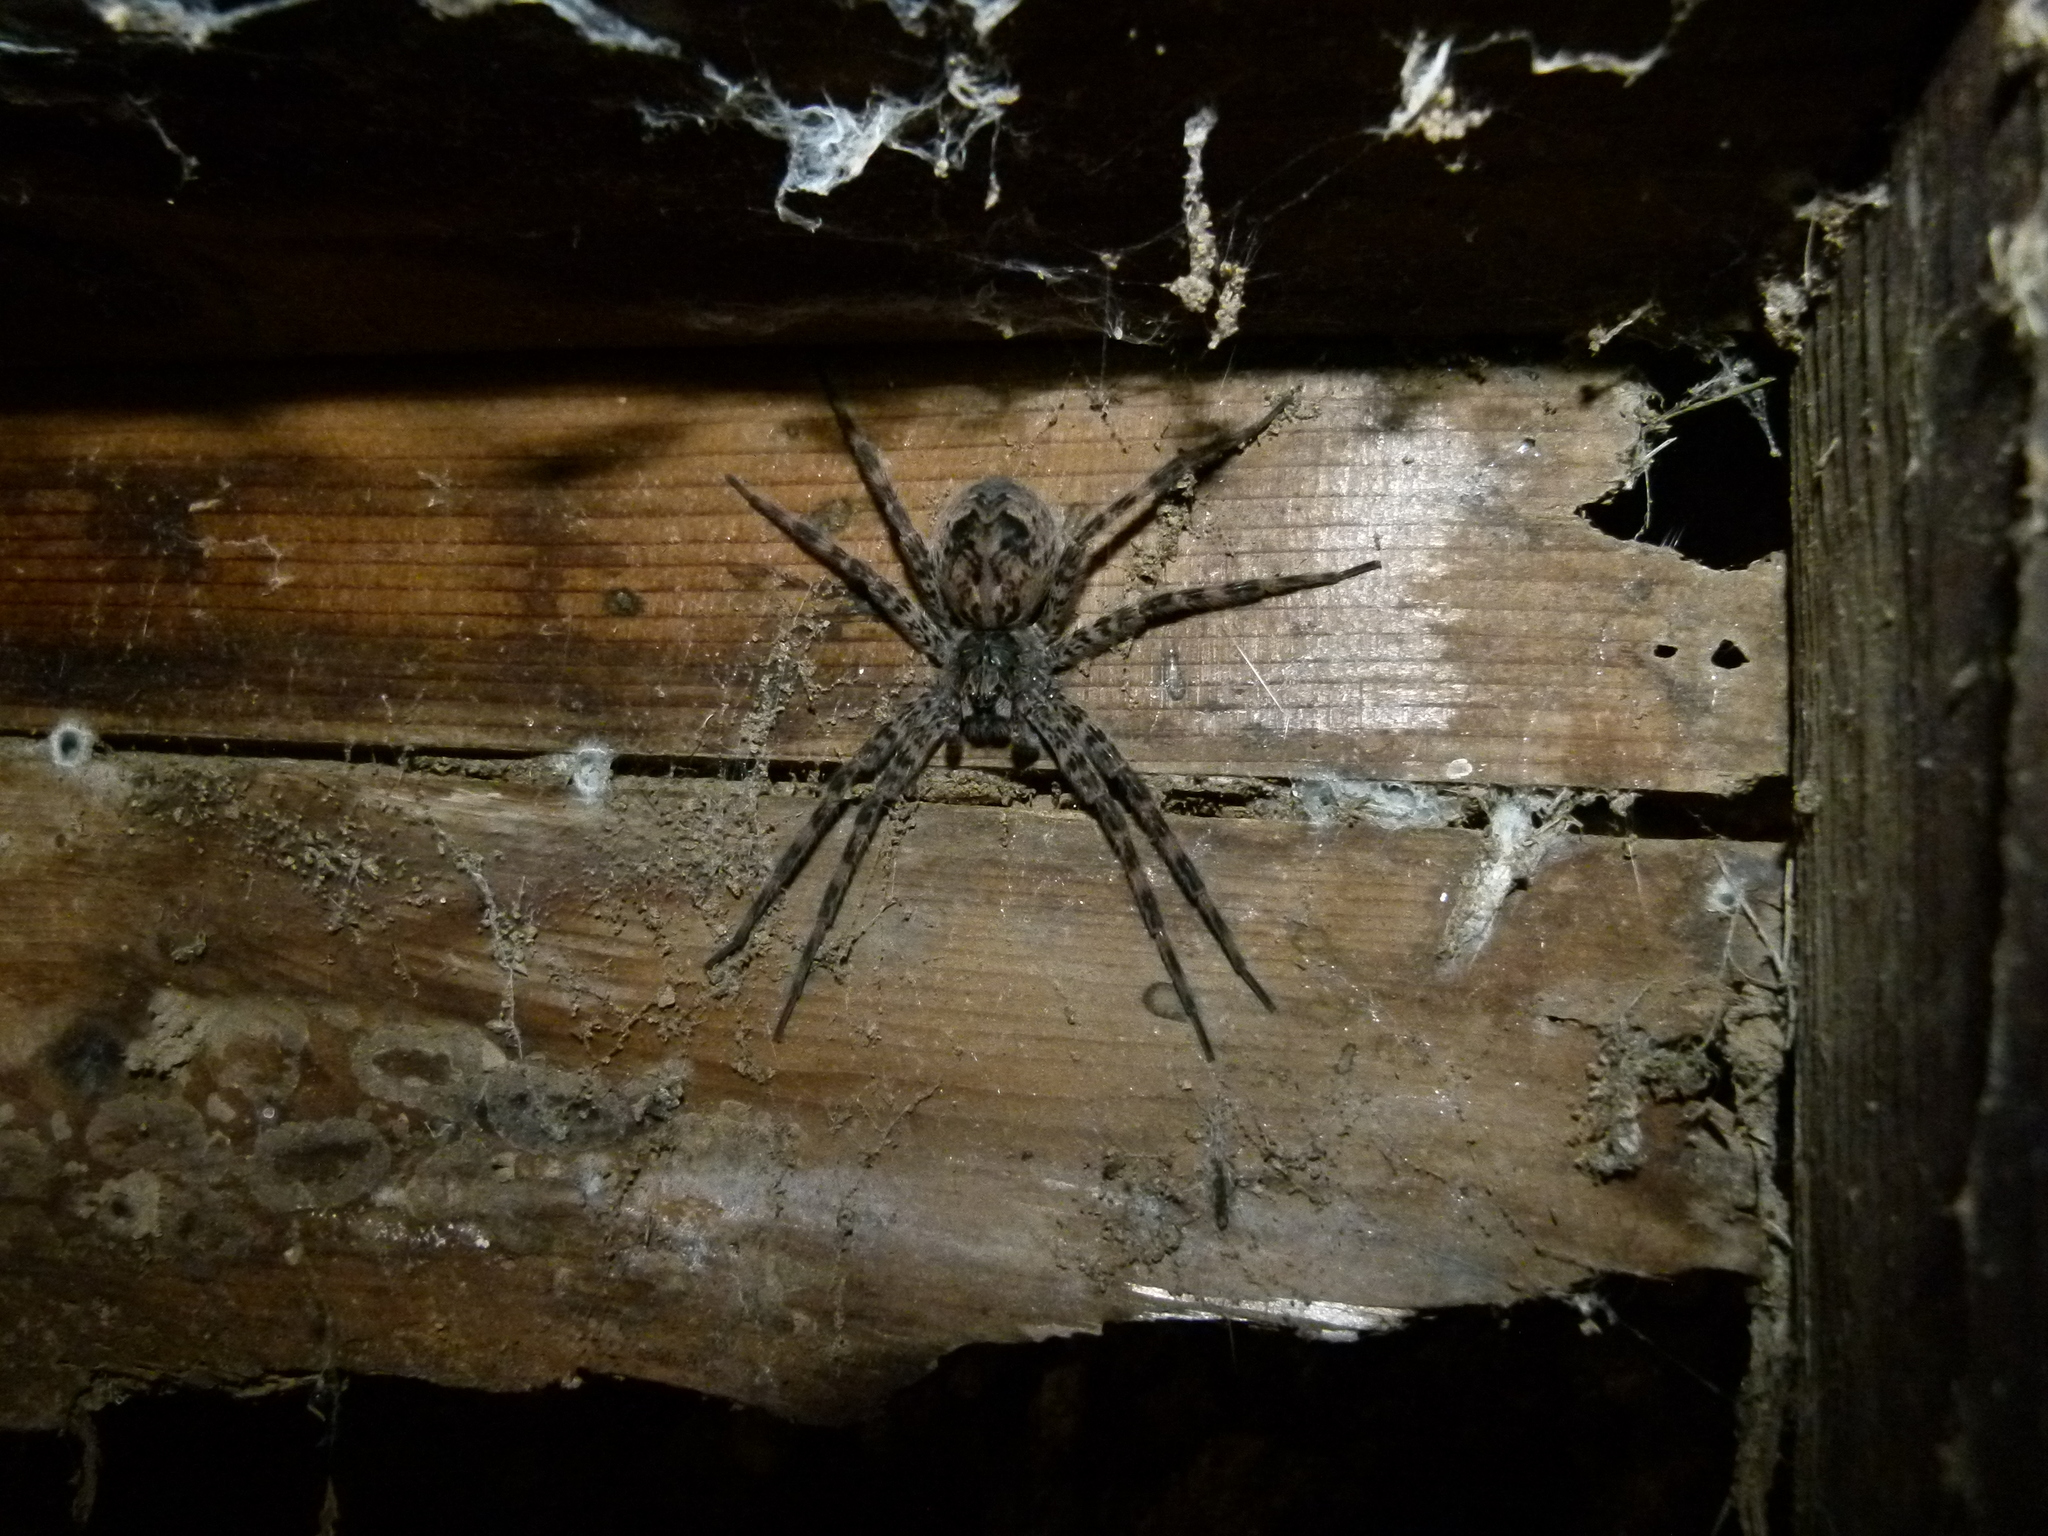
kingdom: Animalia
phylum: Arthropoda
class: Arachnida
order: Araneae
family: Pisauridae
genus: Dolomedes
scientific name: Dolomedes tenebrosus
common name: Dark fishing spider
